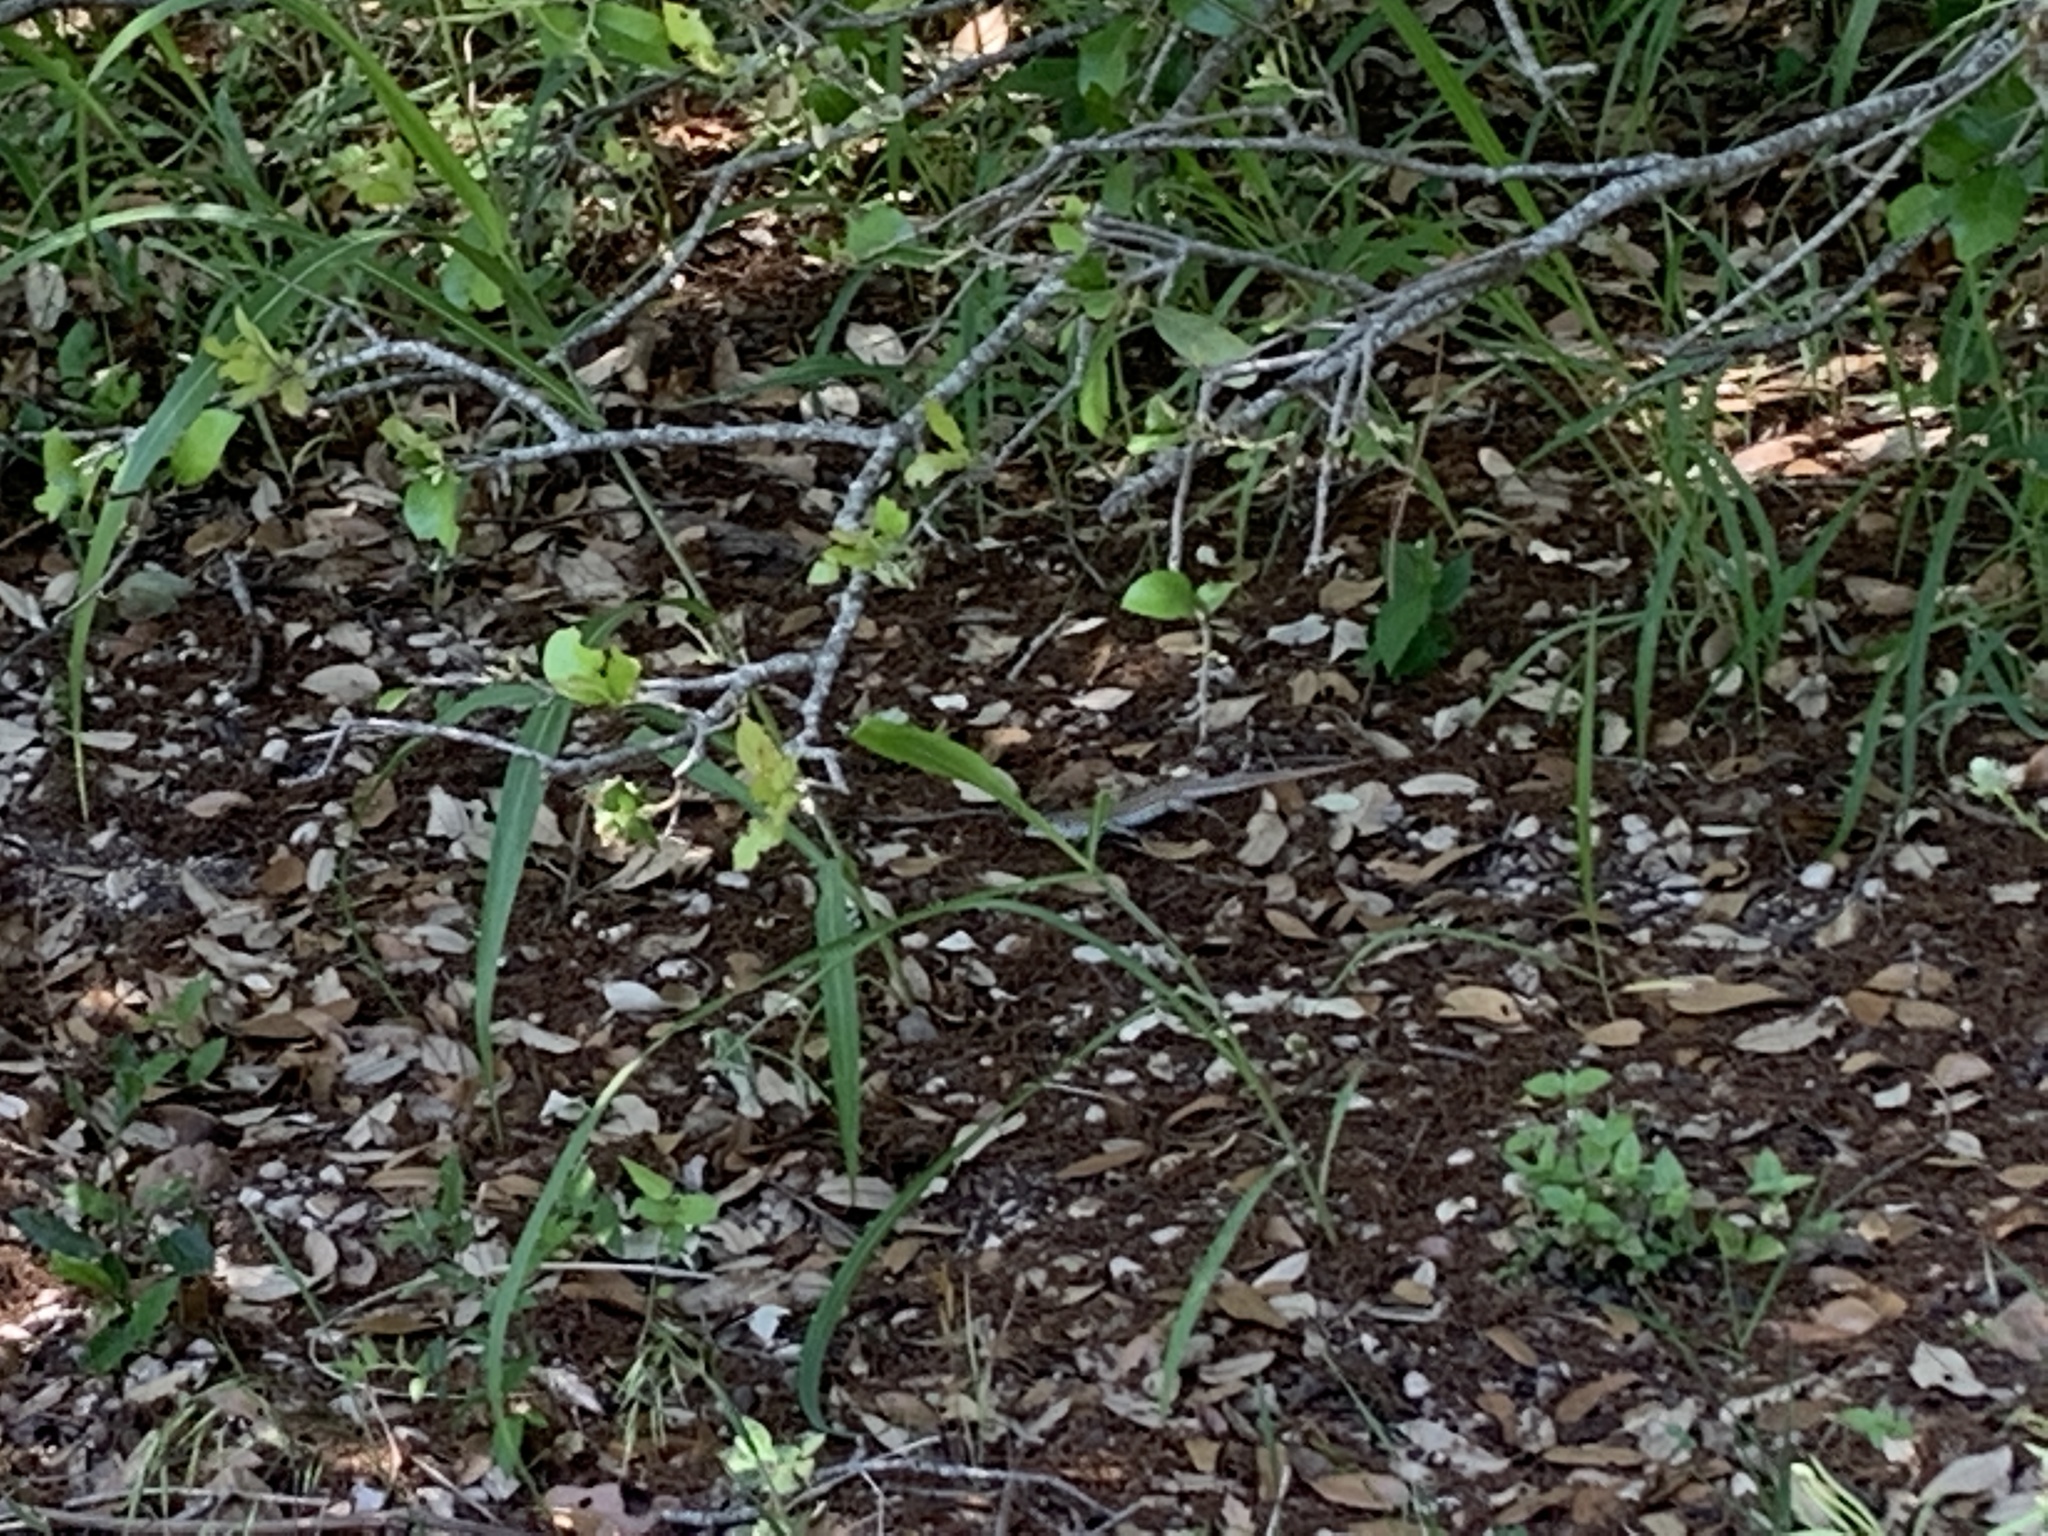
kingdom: Animalia
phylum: Chordata
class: Squamata
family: Teiidae
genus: Aspidoscelis
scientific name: Aspidoscelis gularis
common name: Eastern spotted whiptail
